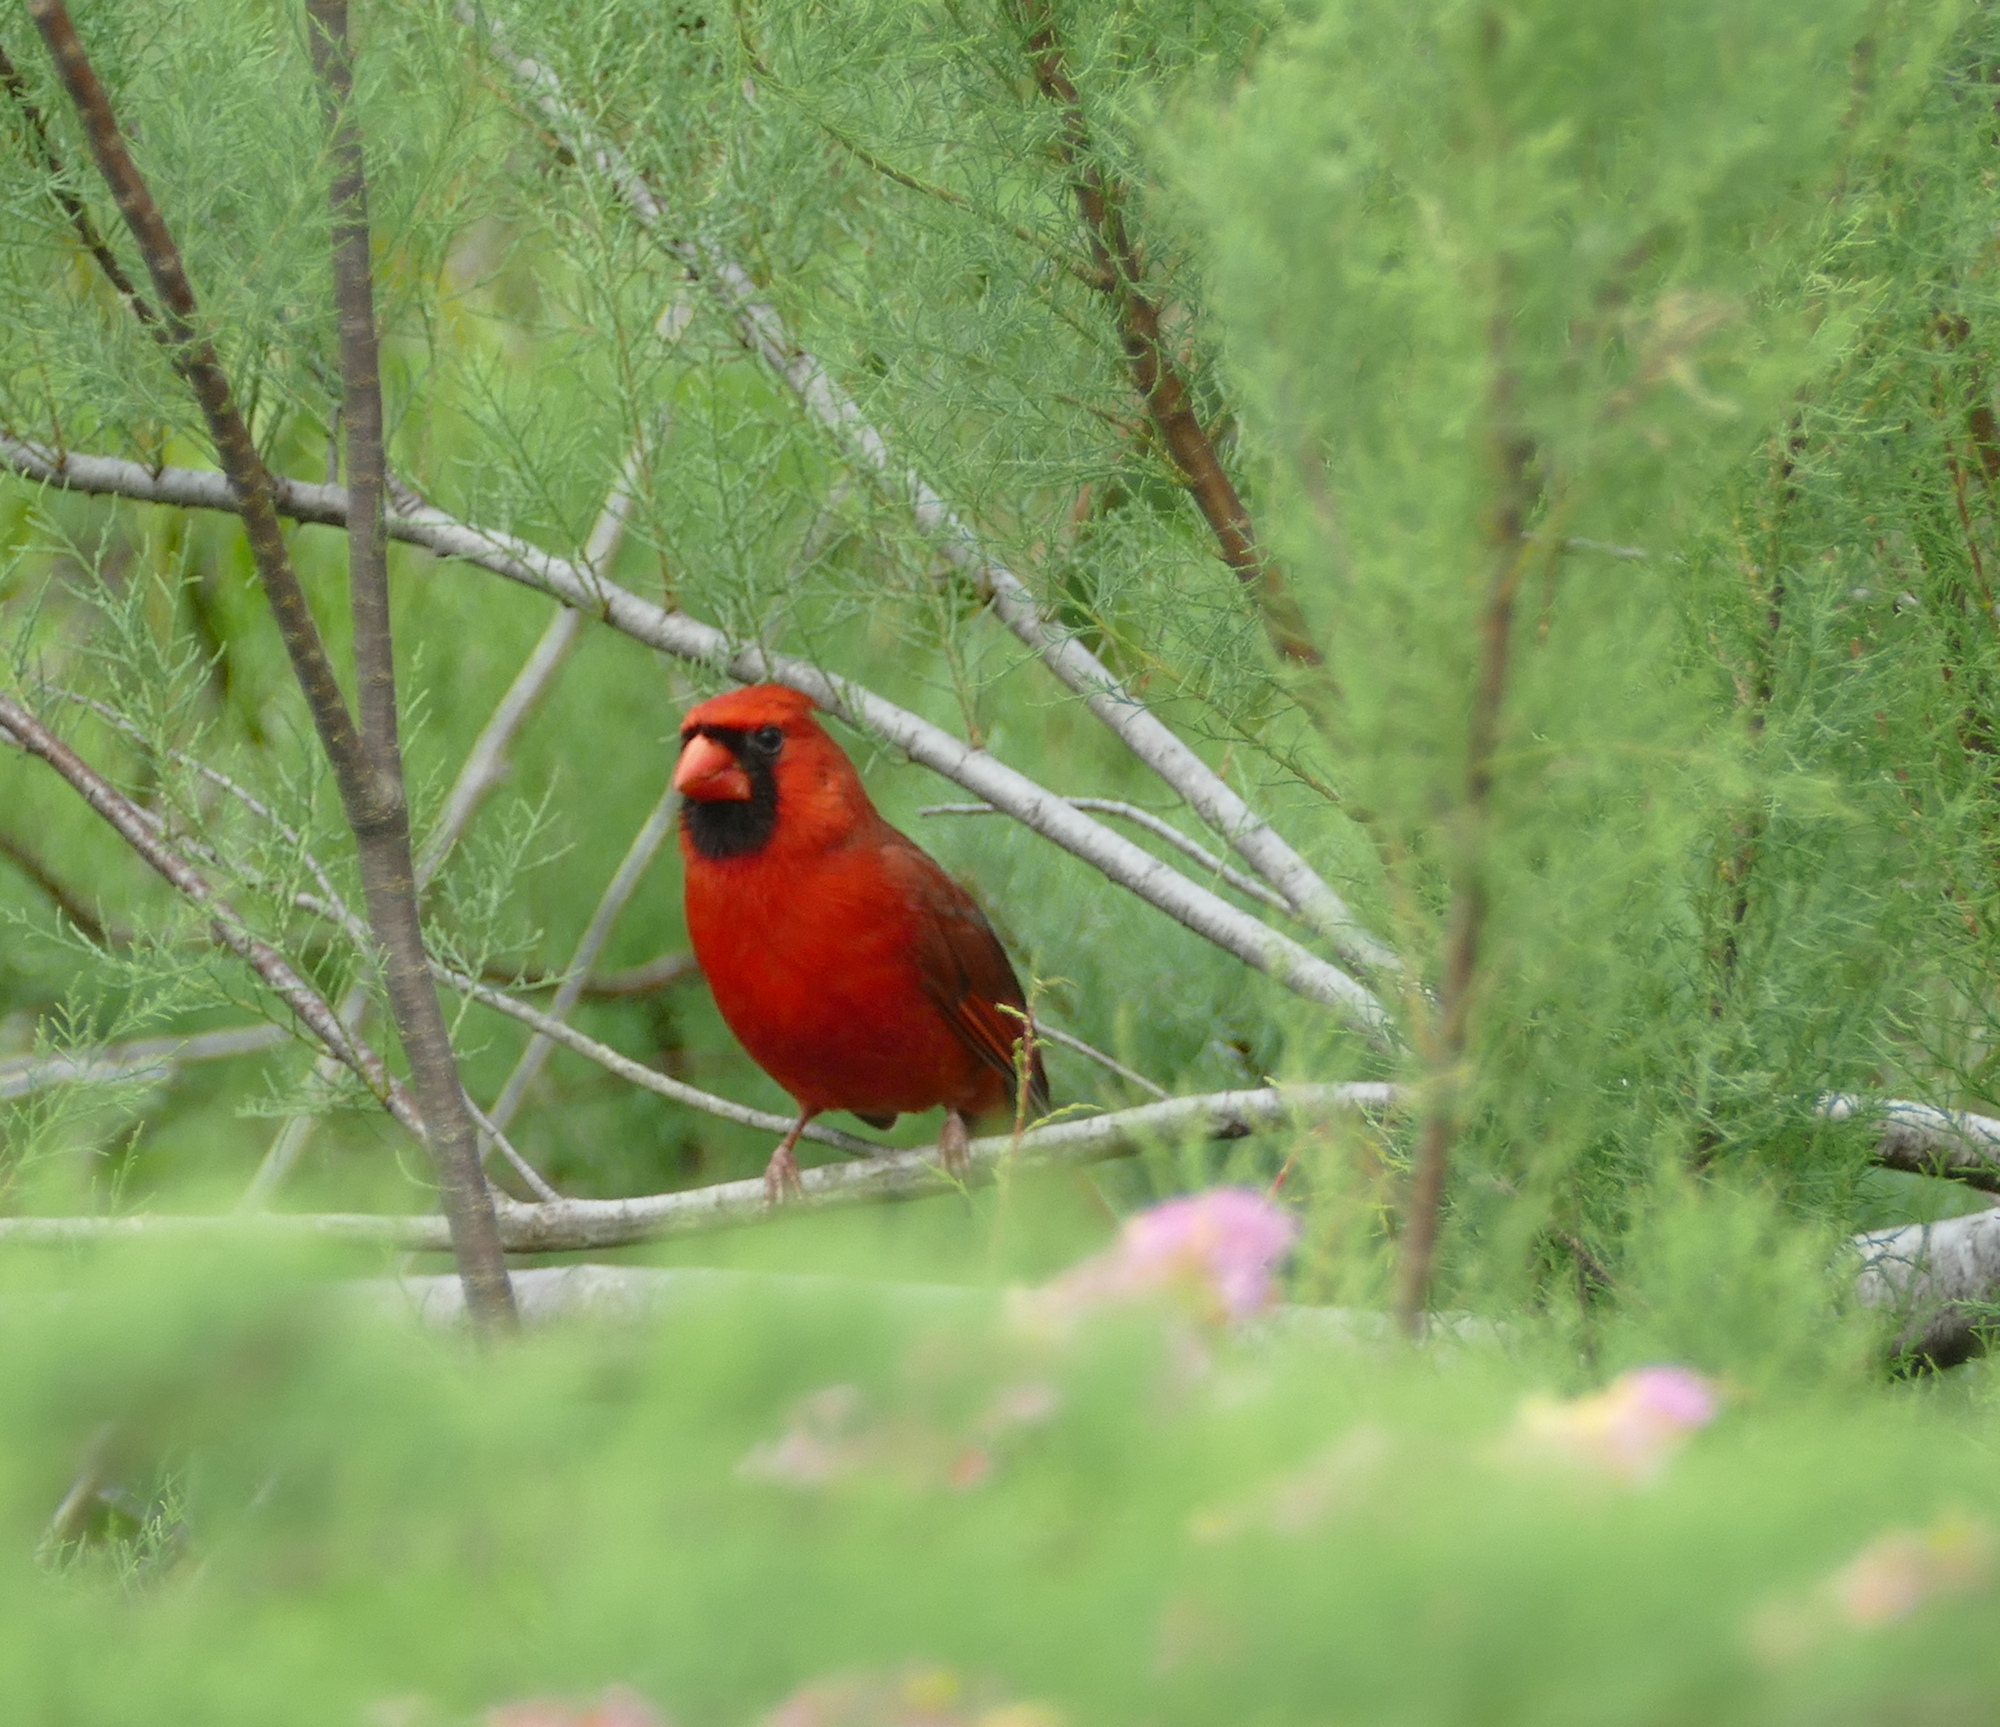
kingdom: Animalia
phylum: Chordata
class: Aves
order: Passeriformes
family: Cardinalidae
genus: Cardinalis
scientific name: Cardinalis cardinalis
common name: Northern cardinal
